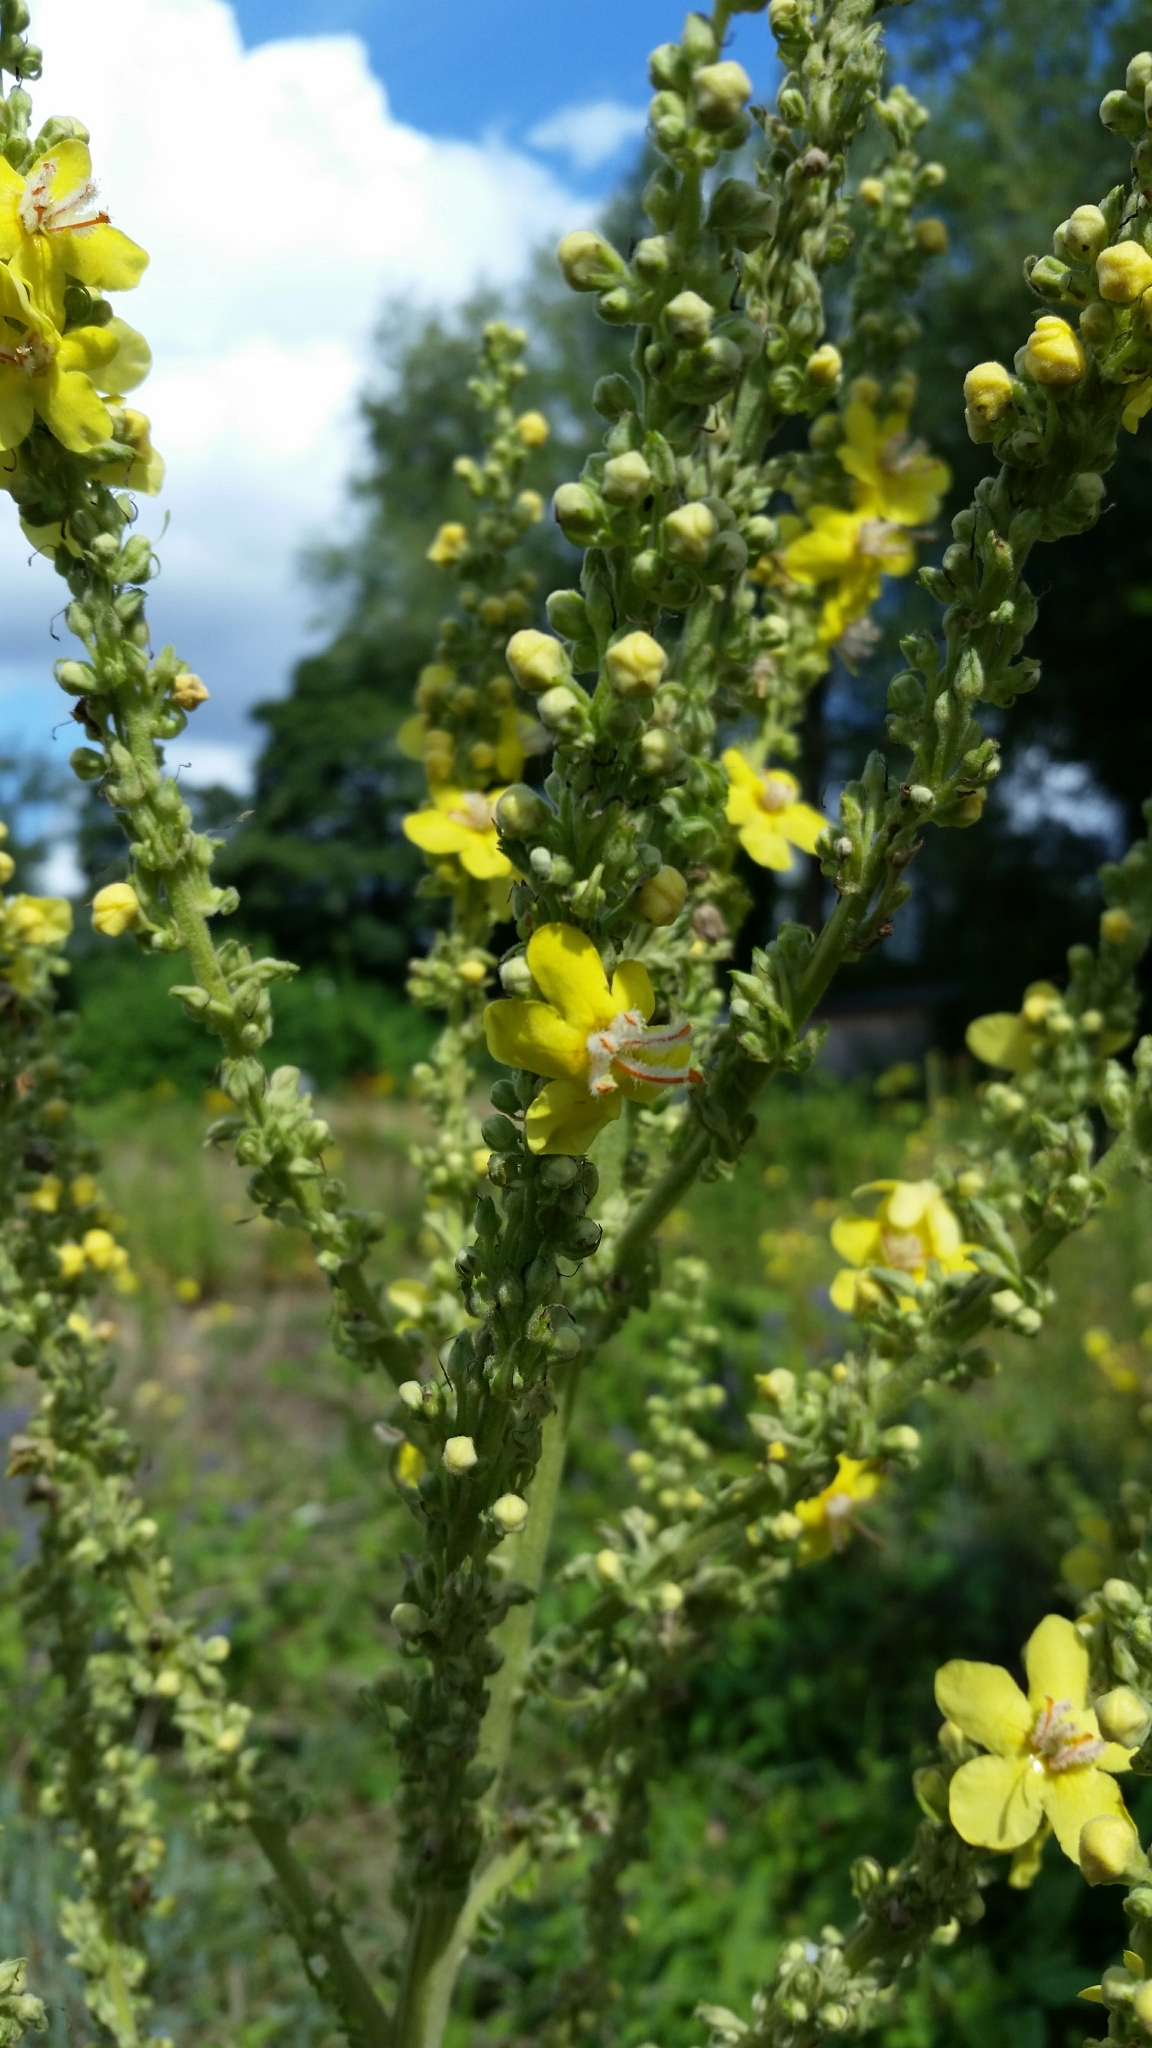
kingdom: Plantae
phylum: Tracheophyta
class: Magnoliopsida
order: Lamiales
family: Scrophulariaceae
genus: Verbascum
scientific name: Verbascum lychnitis
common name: White mullein
